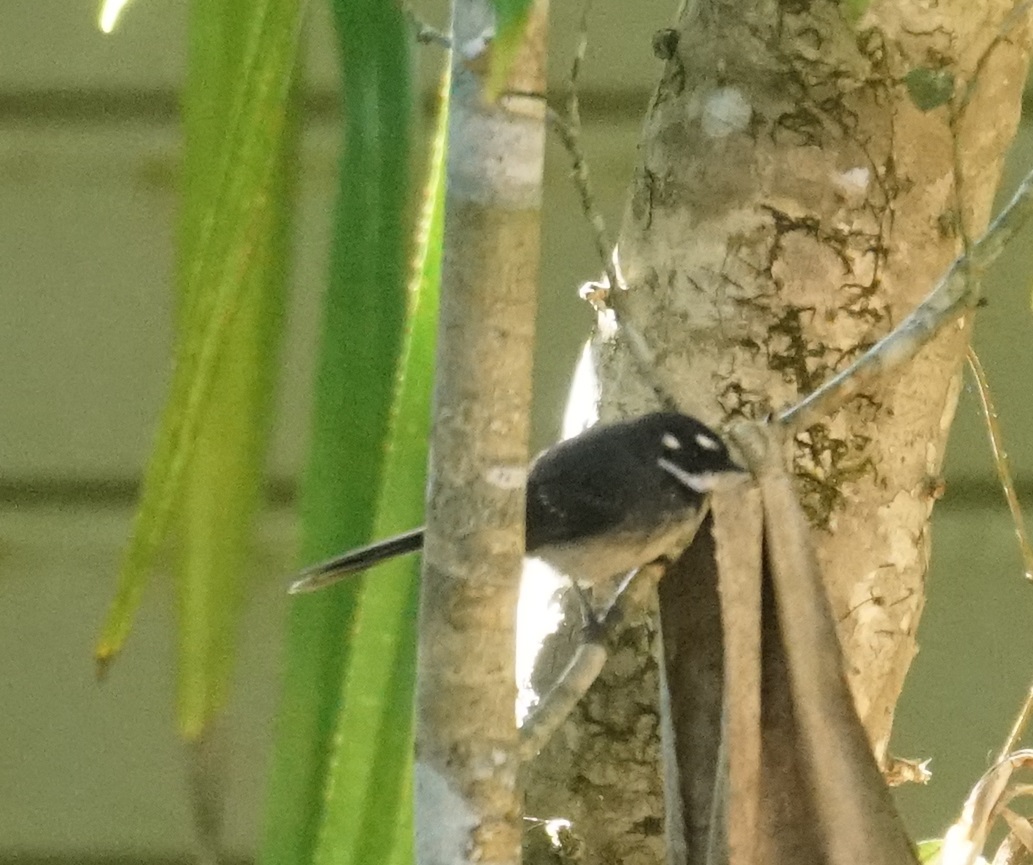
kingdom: Animalia
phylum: Chordata
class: Aves
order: Passeriformes
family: Rhipiduridae
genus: Rhipidura
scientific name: Rhipidura albiscapa
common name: Grey fantail
